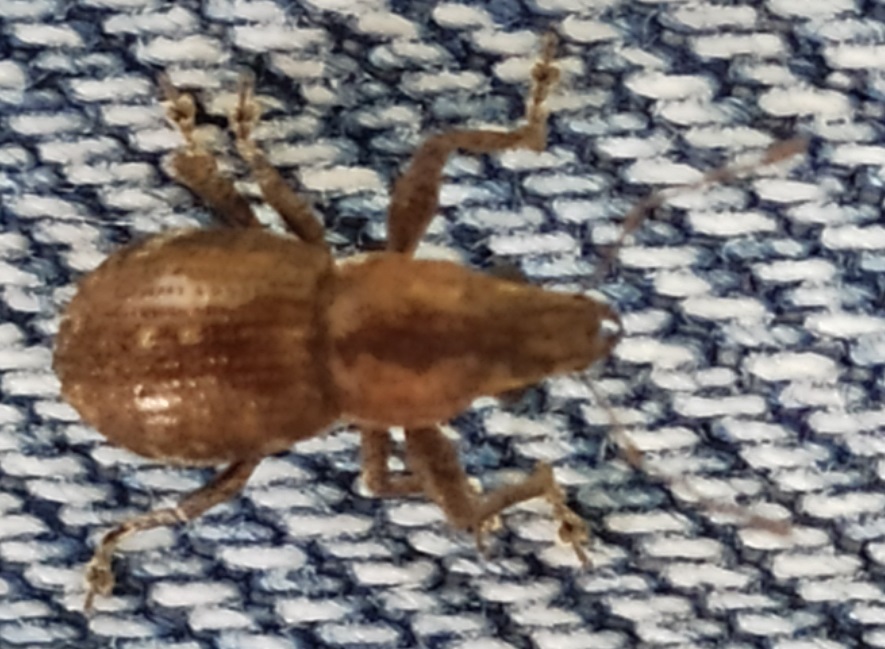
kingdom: Animalia
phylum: Arthropoda
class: Insecta
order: Coleoptera
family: Curculionidae
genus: Naupactus
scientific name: Naupactus cervinus
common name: Fuller rose beetle
